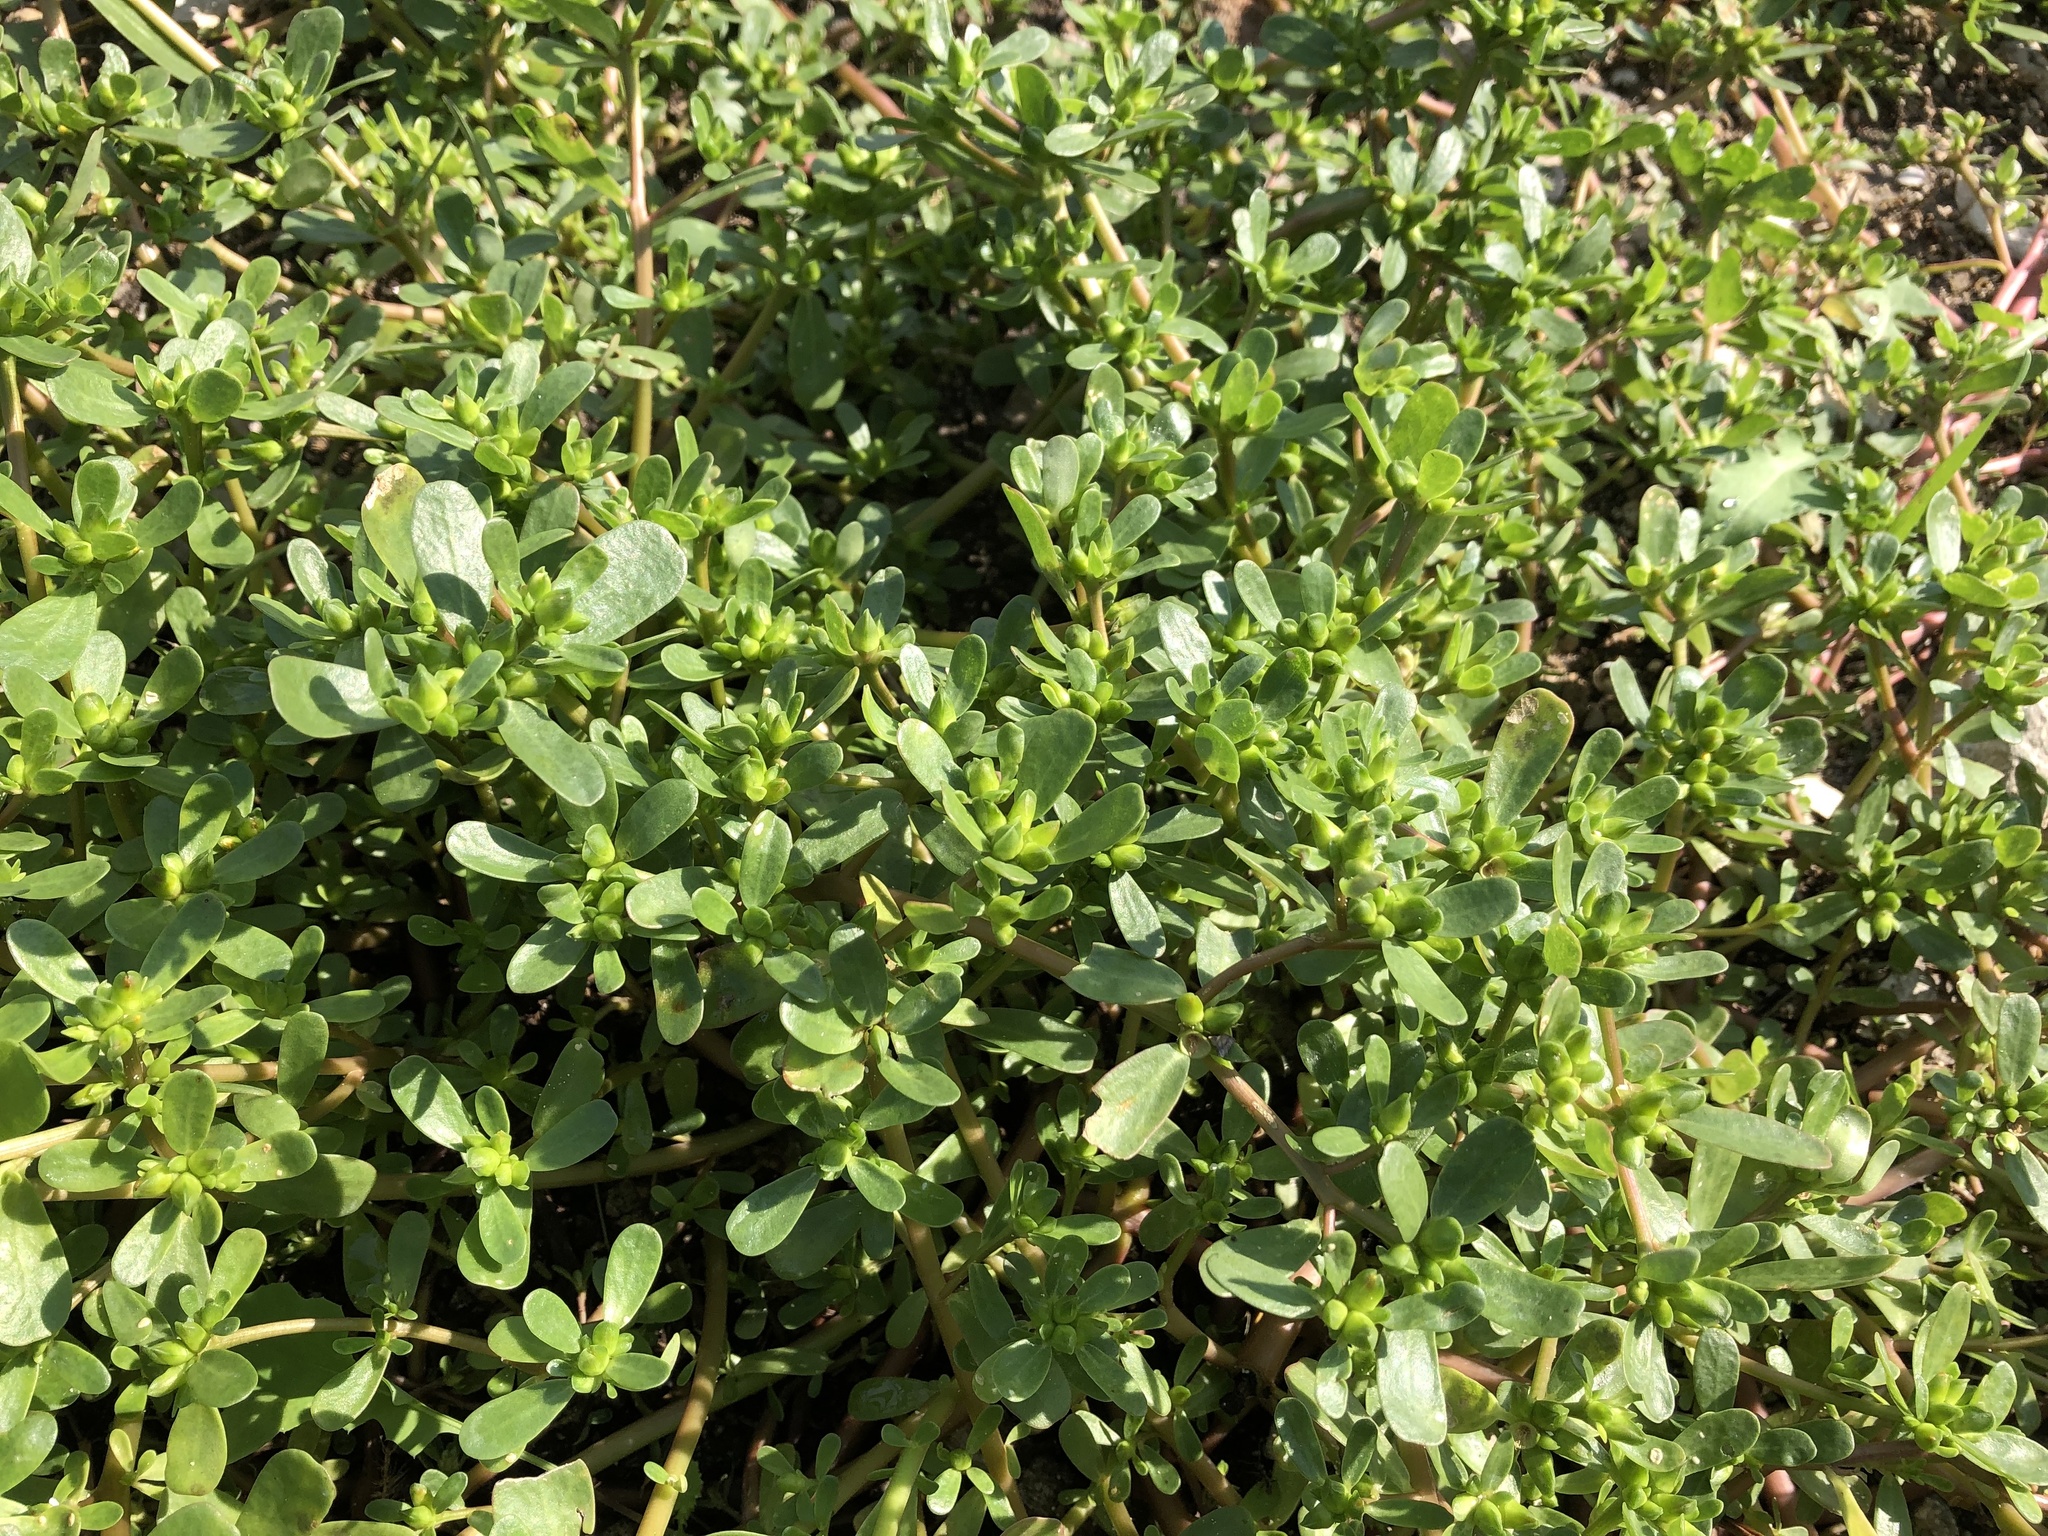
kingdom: Plantae
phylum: Tracheophyta
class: Magnoliopsida
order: Caryophyllales
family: Portulacaceae
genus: Portulaca
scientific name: Portulaca oleracea
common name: Common purslane
